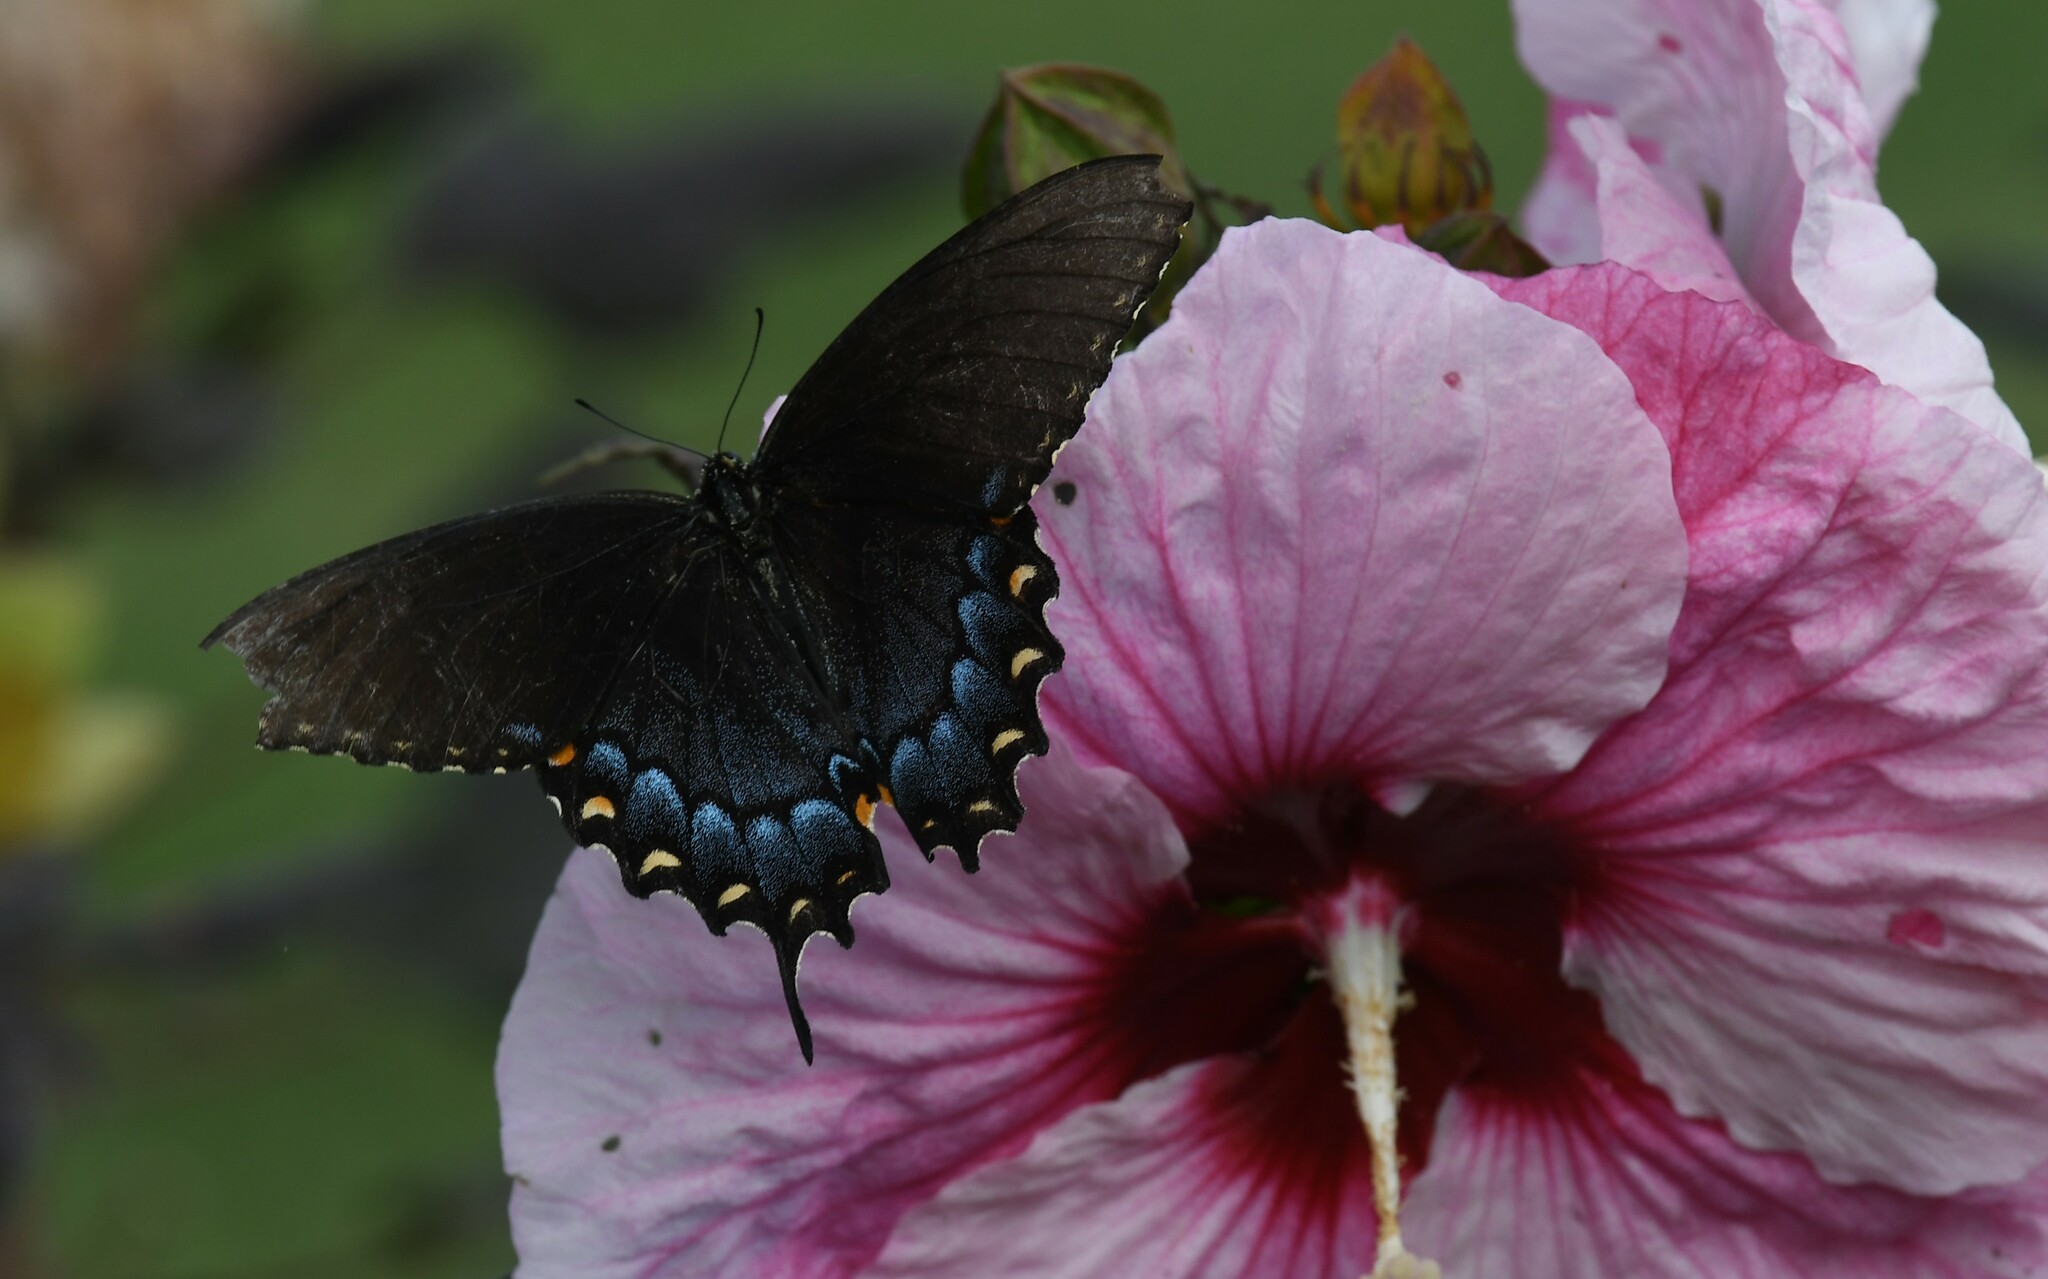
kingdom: Animalia
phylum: Arthropoda
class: Insecta
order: Lepidoptera
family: Papilionidae
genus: Papilio
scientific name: Papilio glaucus
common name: Tiger swallowtail
